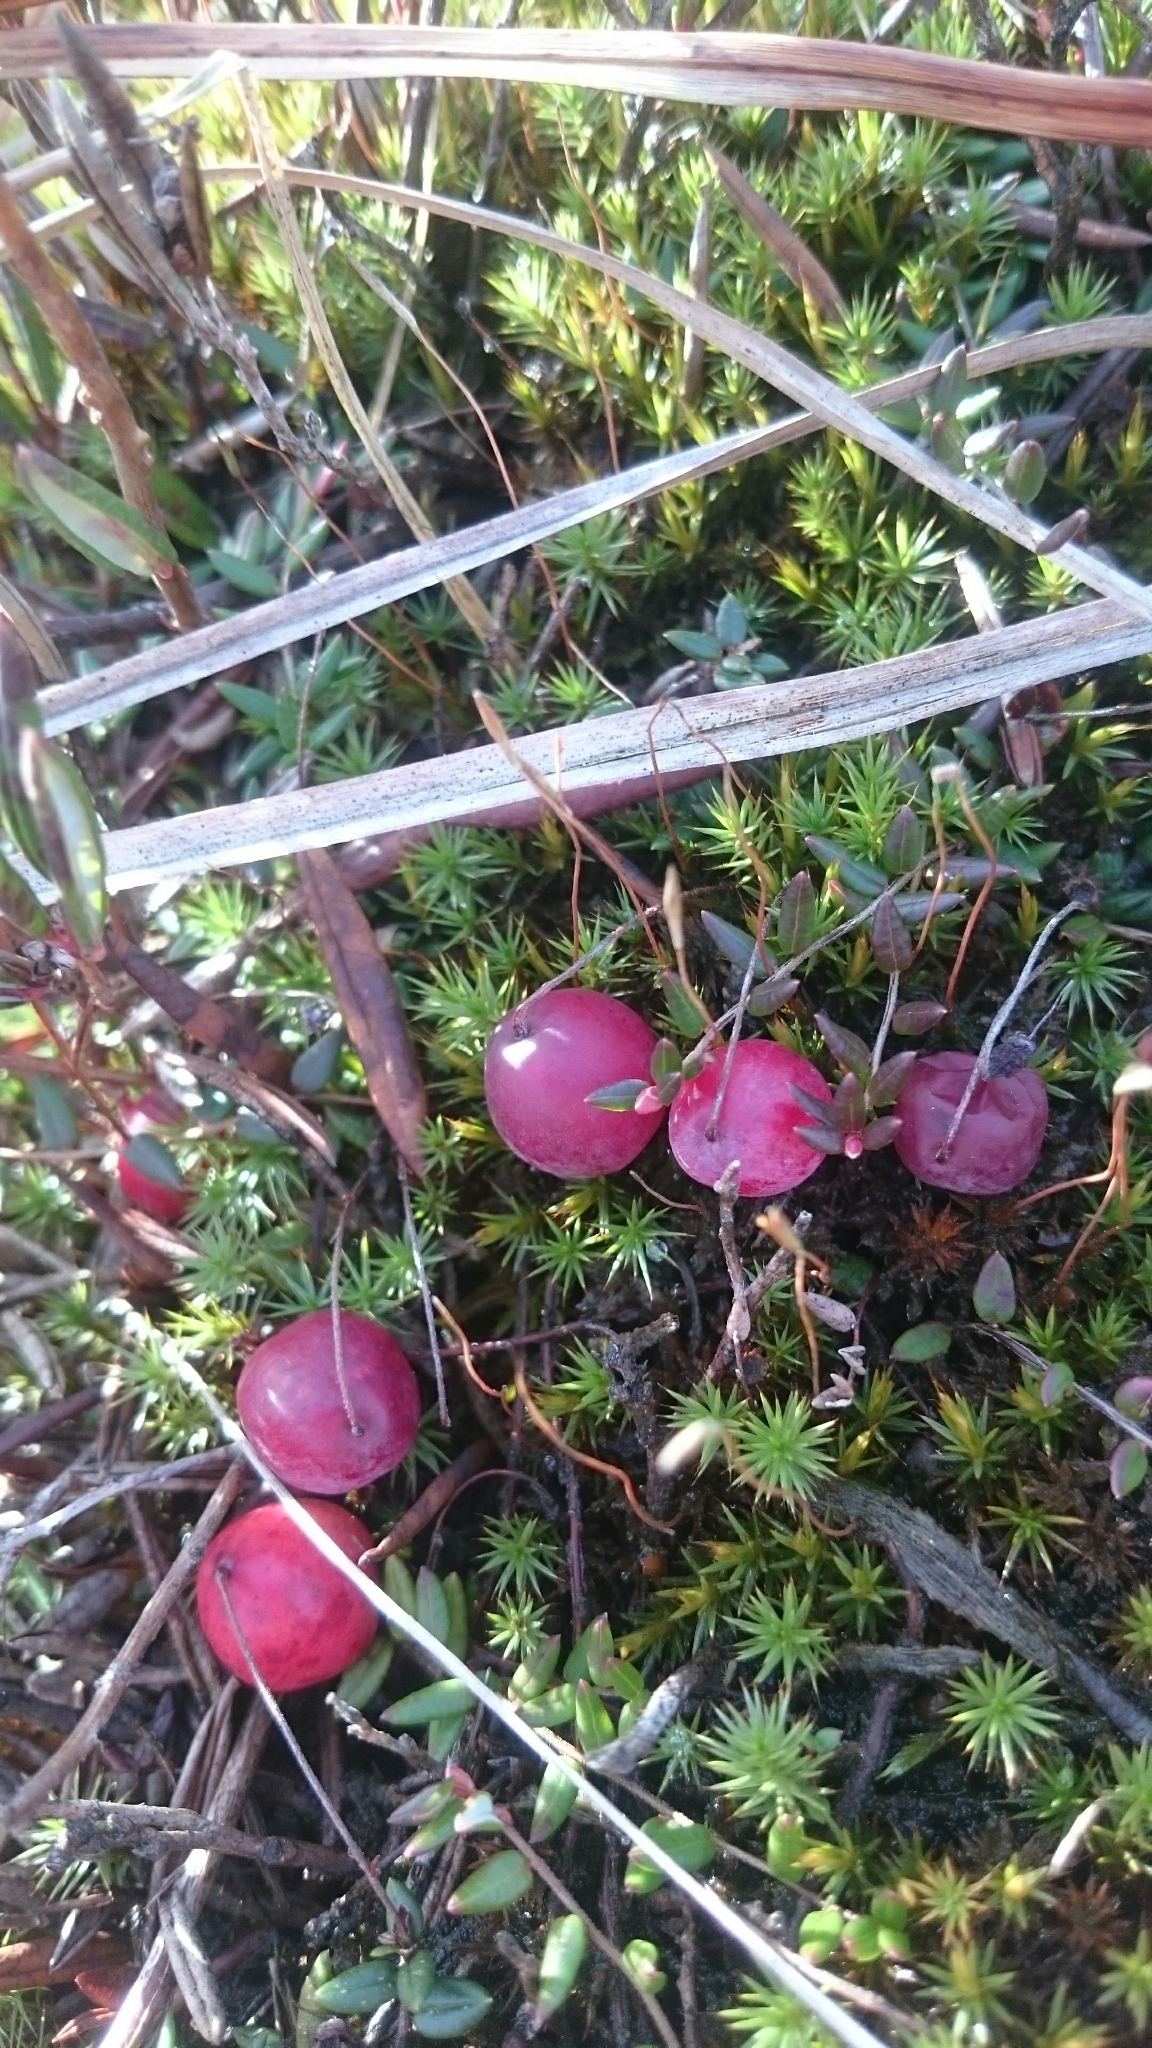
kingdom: Plantae
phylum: Tracheophyta
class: Magnoliopsida
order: Ericales
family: Ericaceae
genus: Vaccinium
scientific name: Vaccinium oxycoccos
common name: Cranberry
